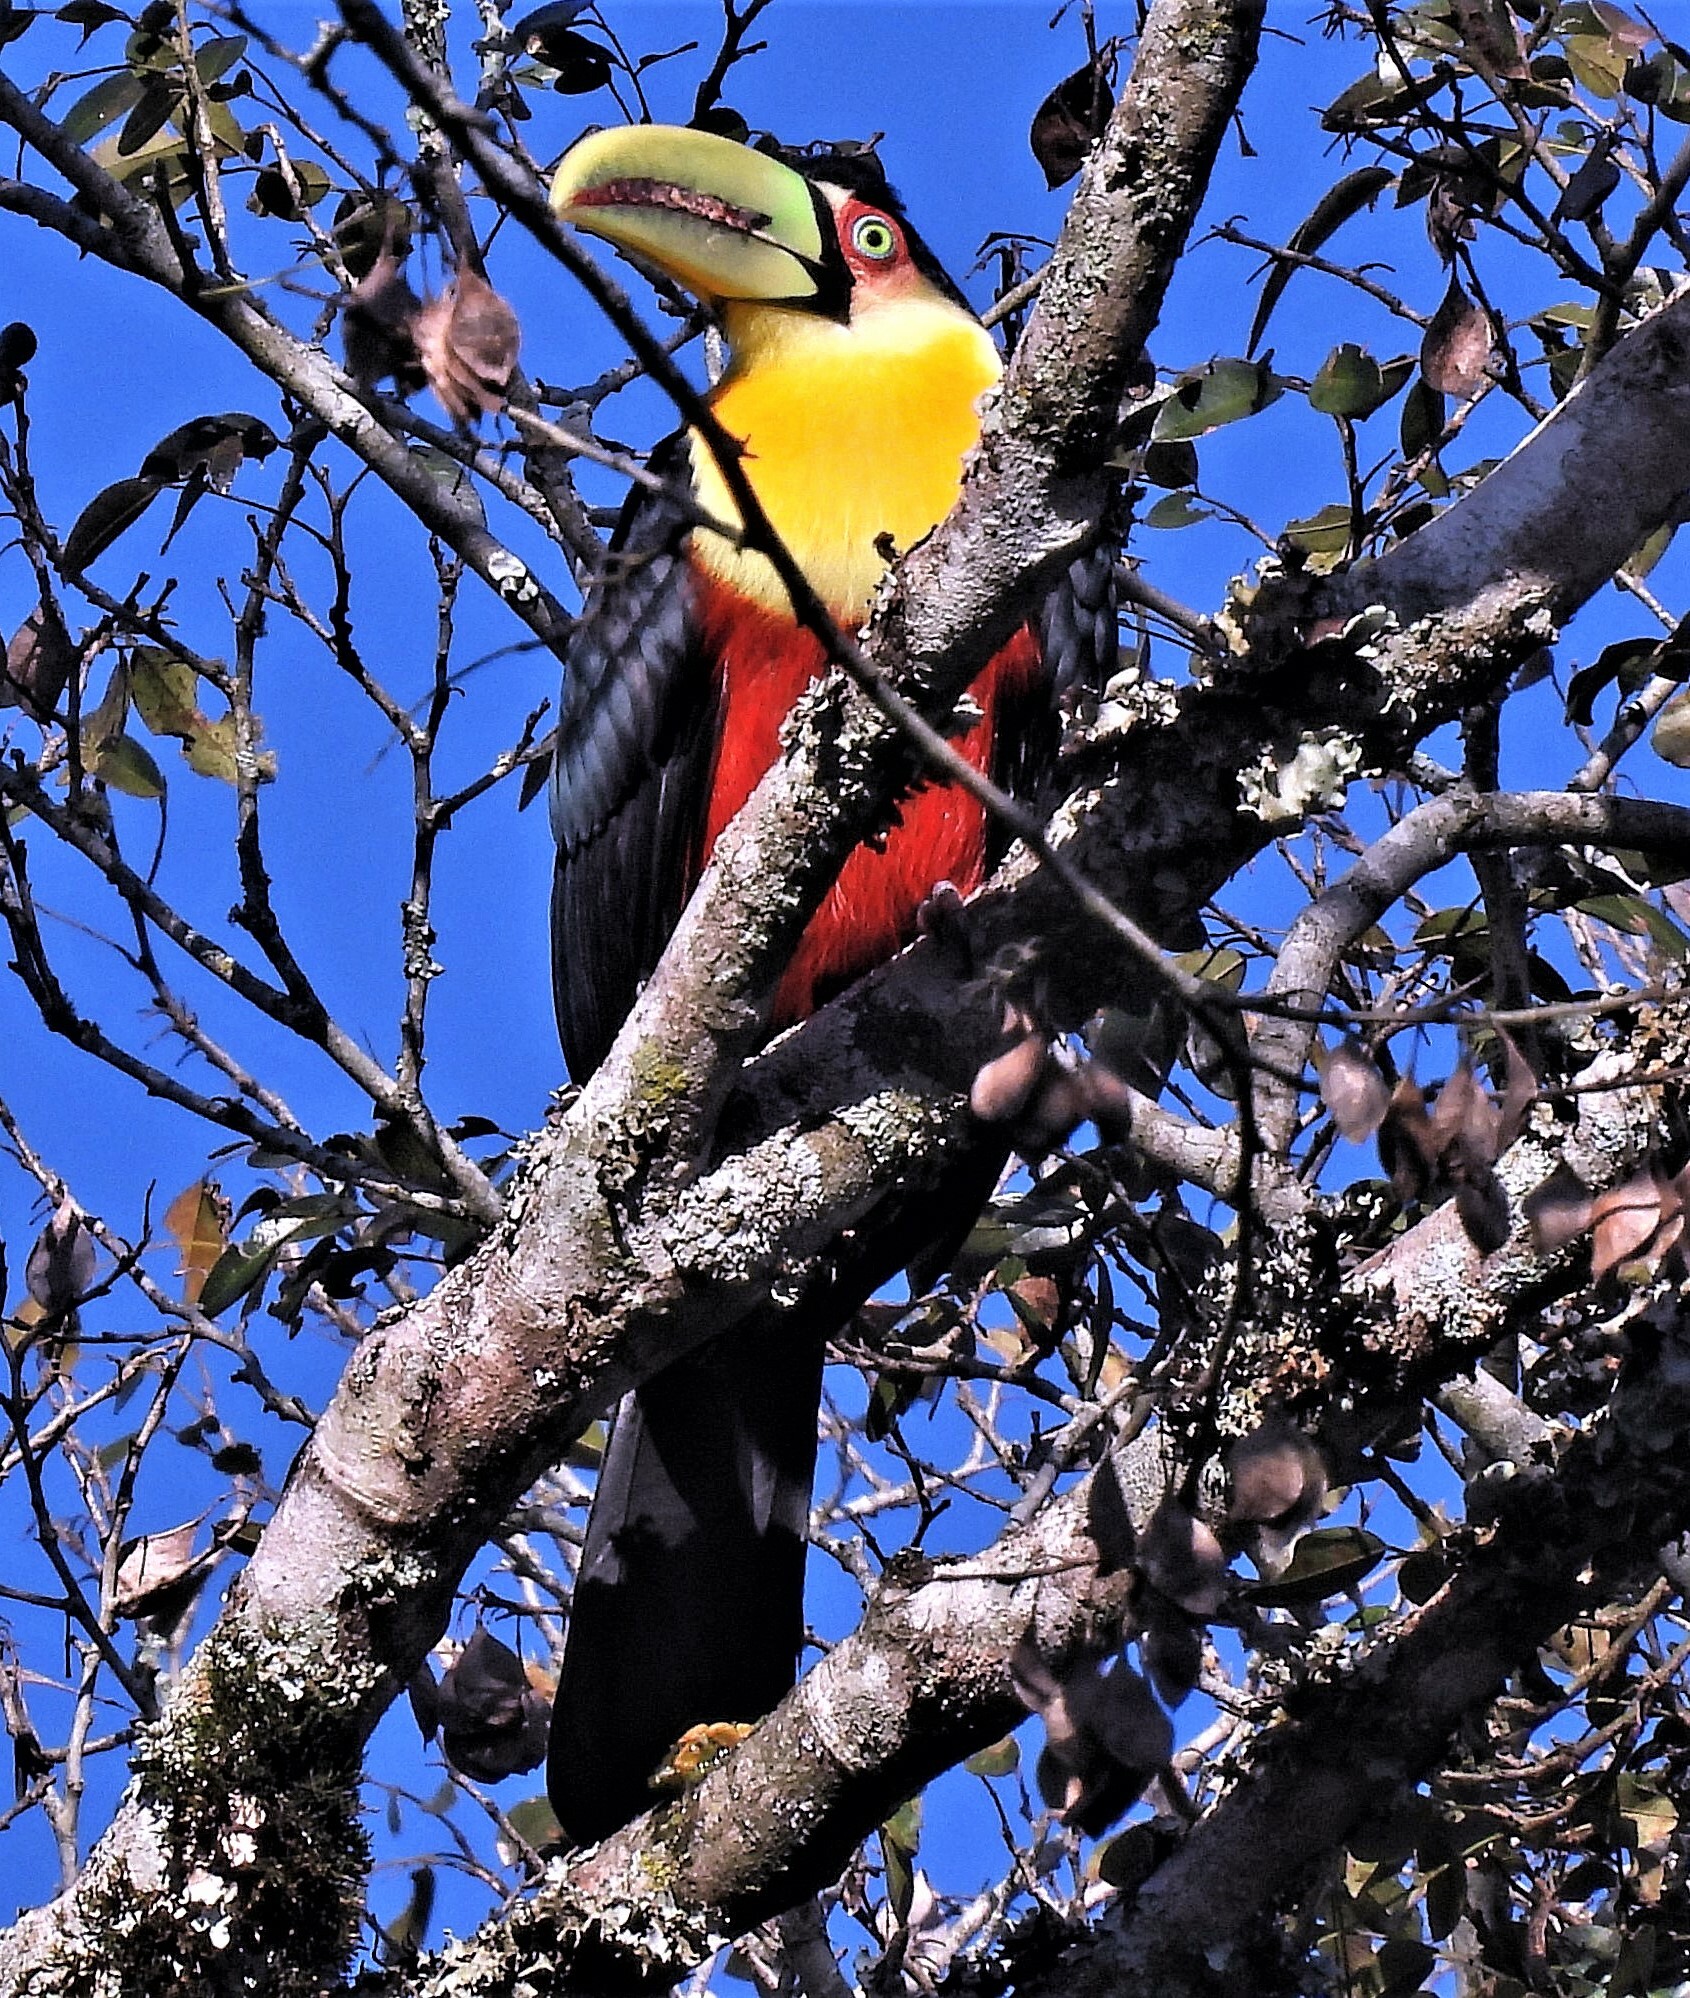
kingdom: Animalia
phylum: Chordata
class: Aves
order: Piciformes
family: Ramphastidae
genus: Ramphastos
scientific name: Ramphastos dicolorus
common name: Green-billed toucan
